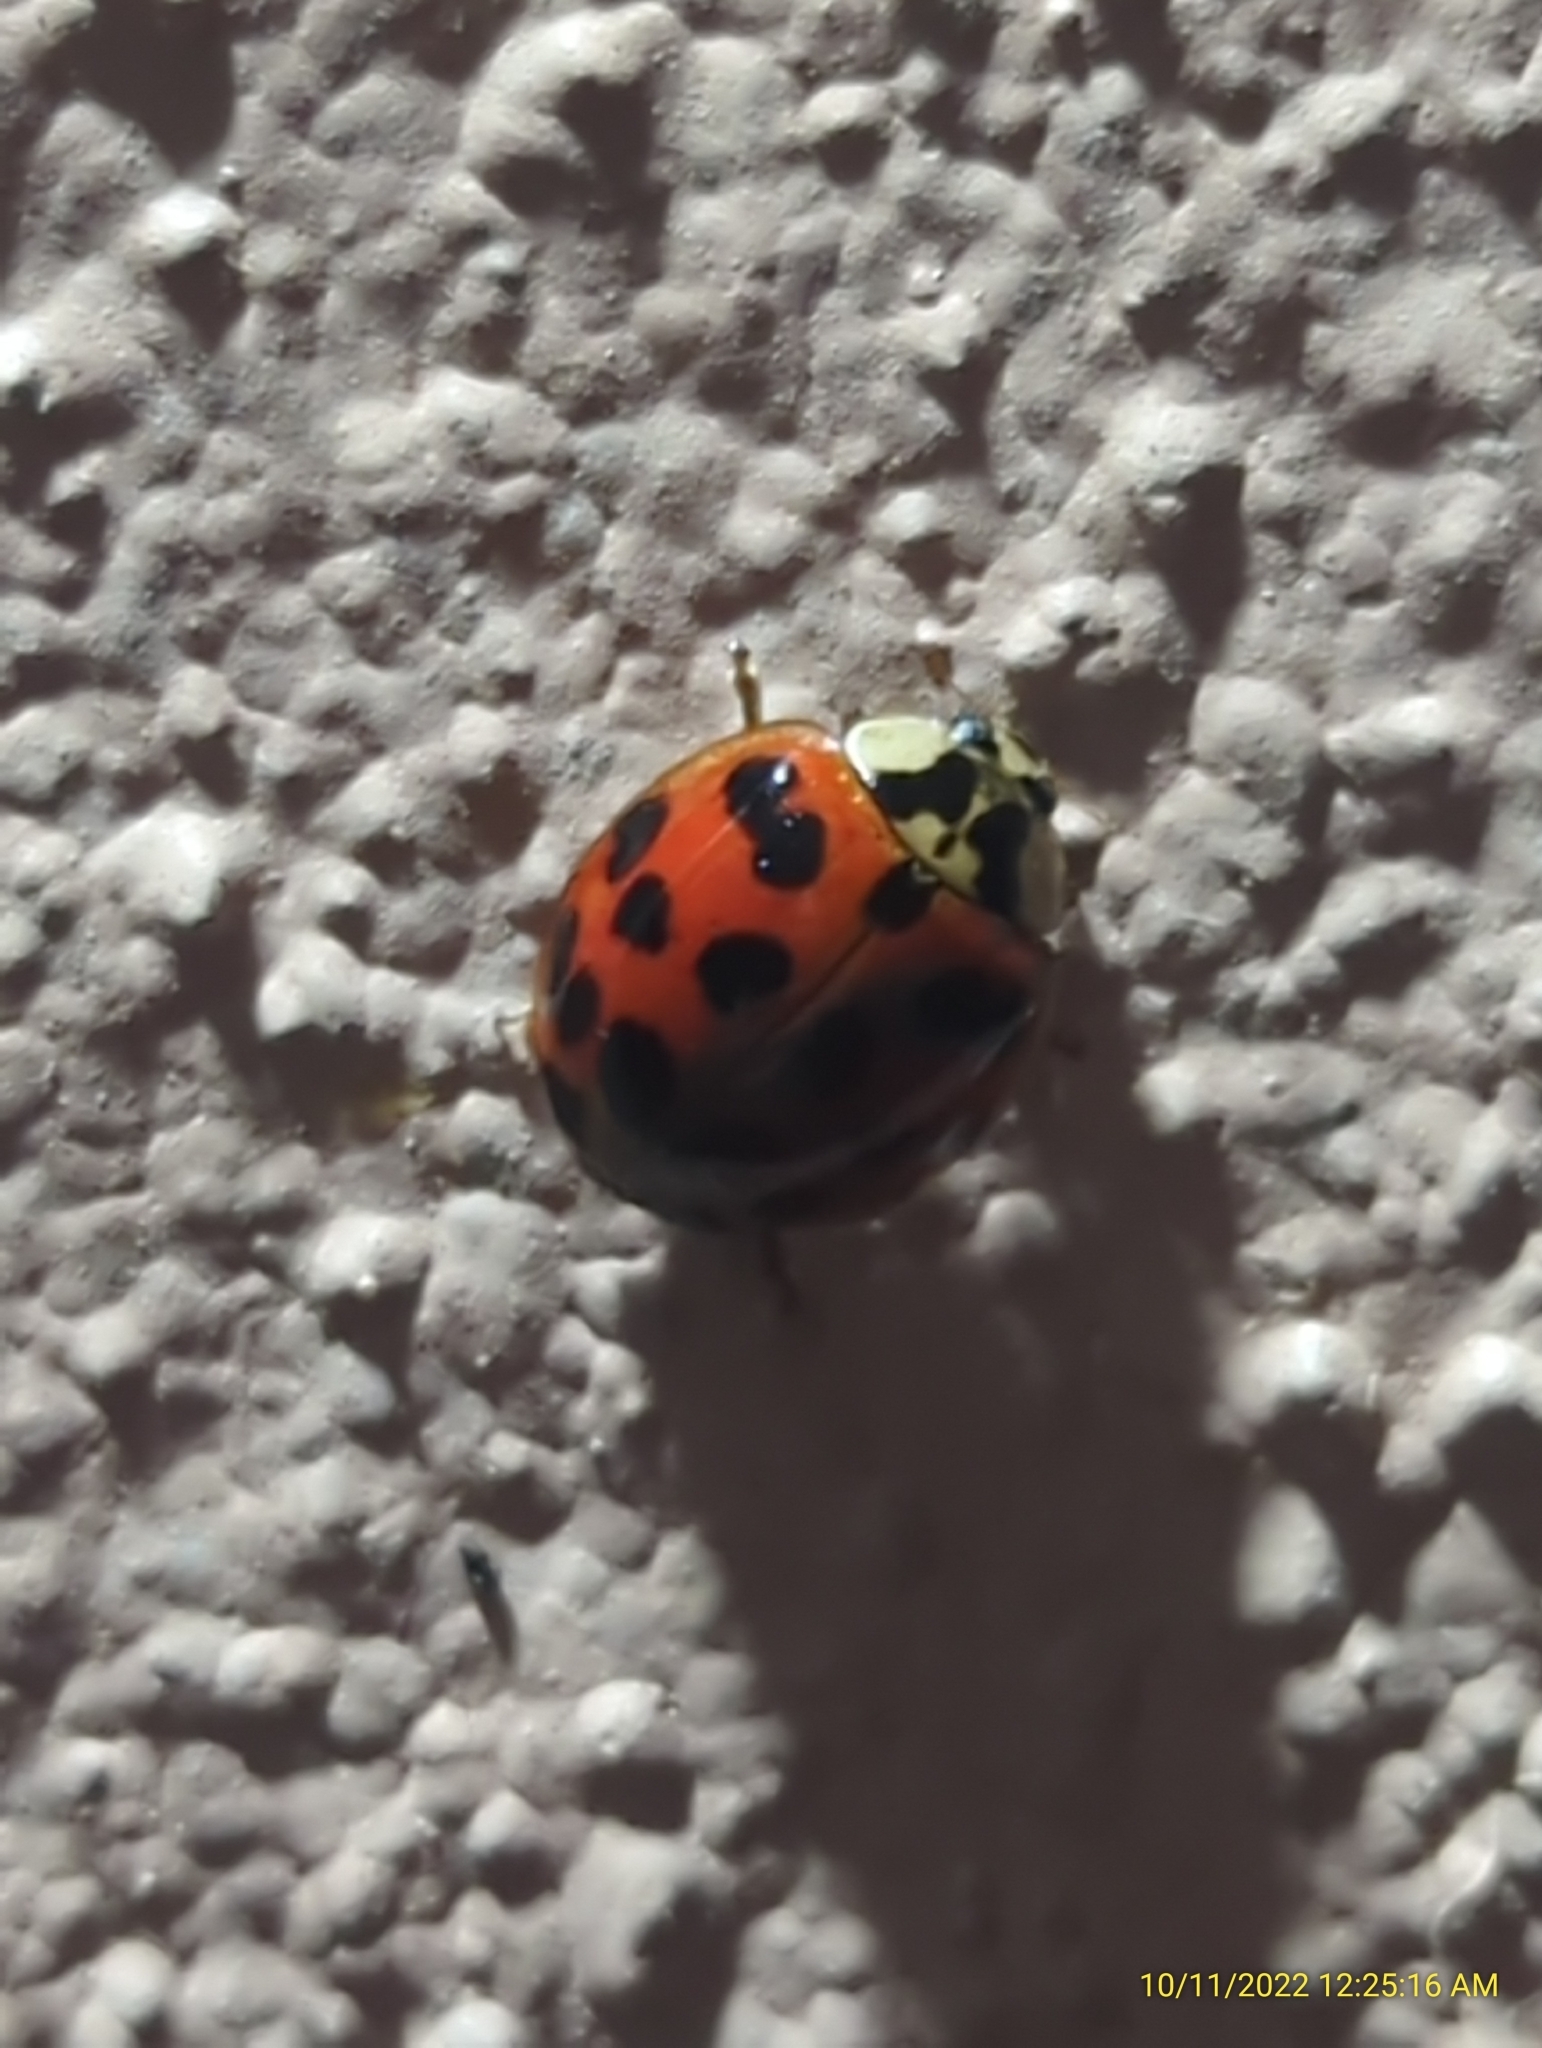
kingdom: Animalia
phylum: Arthropoda
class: Insecta
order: Coleoptera
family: Coccinellidae
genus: Harmonia
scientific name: Harmonia axyridis
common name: Harlequin ladybird
